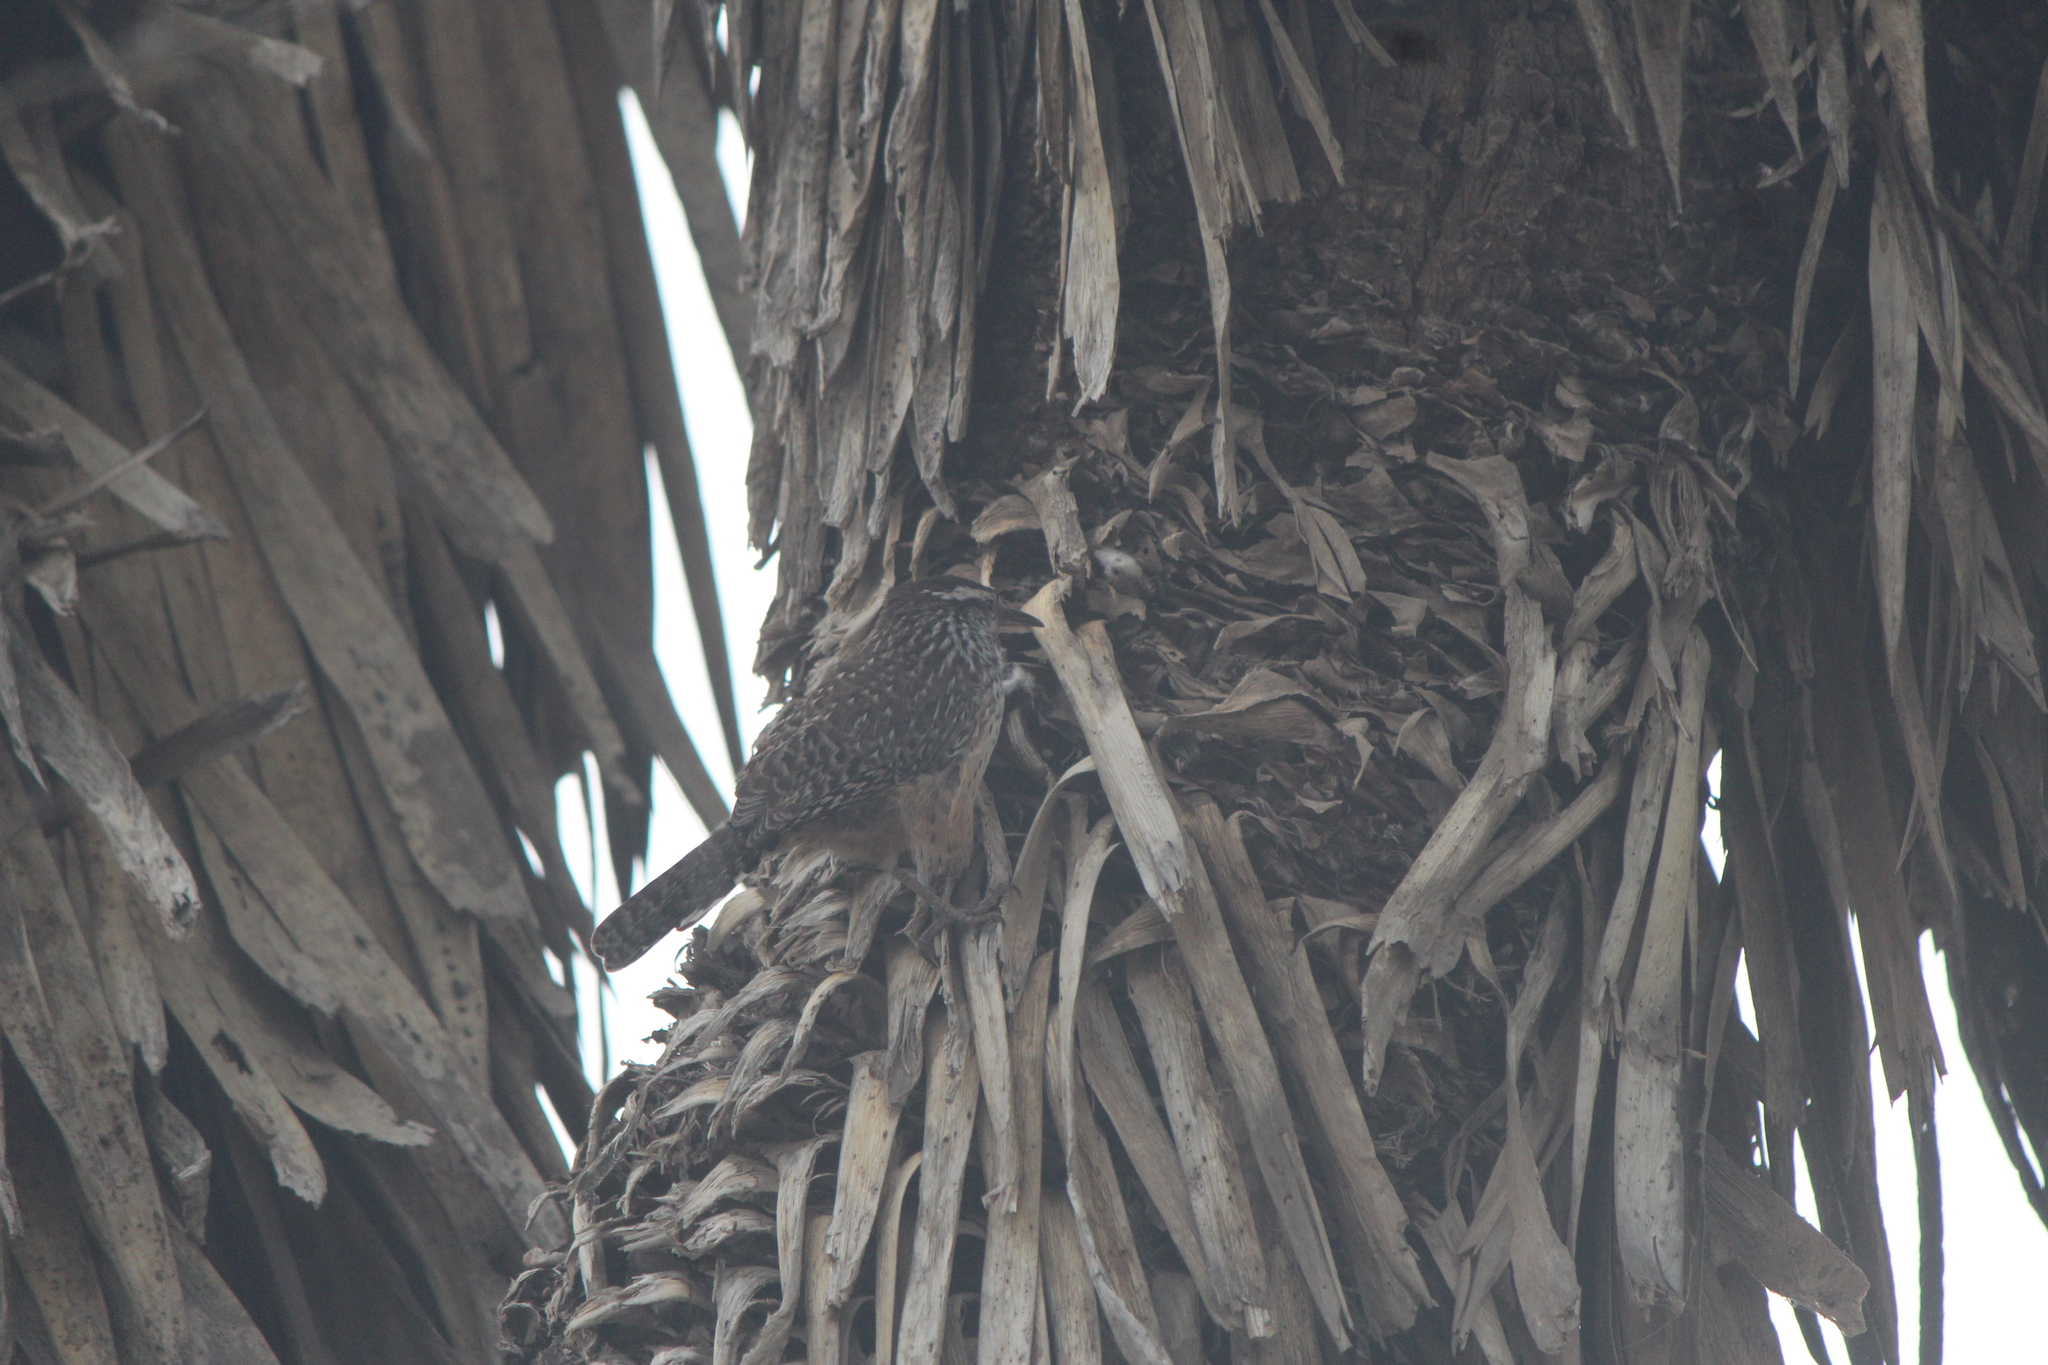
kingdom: Animalia
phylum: Chordata
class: Aves
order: Passeriformes
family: Troglodytidae
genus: Campylorhynchus
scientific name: Campylorhynchus brunneicapillus
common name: Cactus wren
